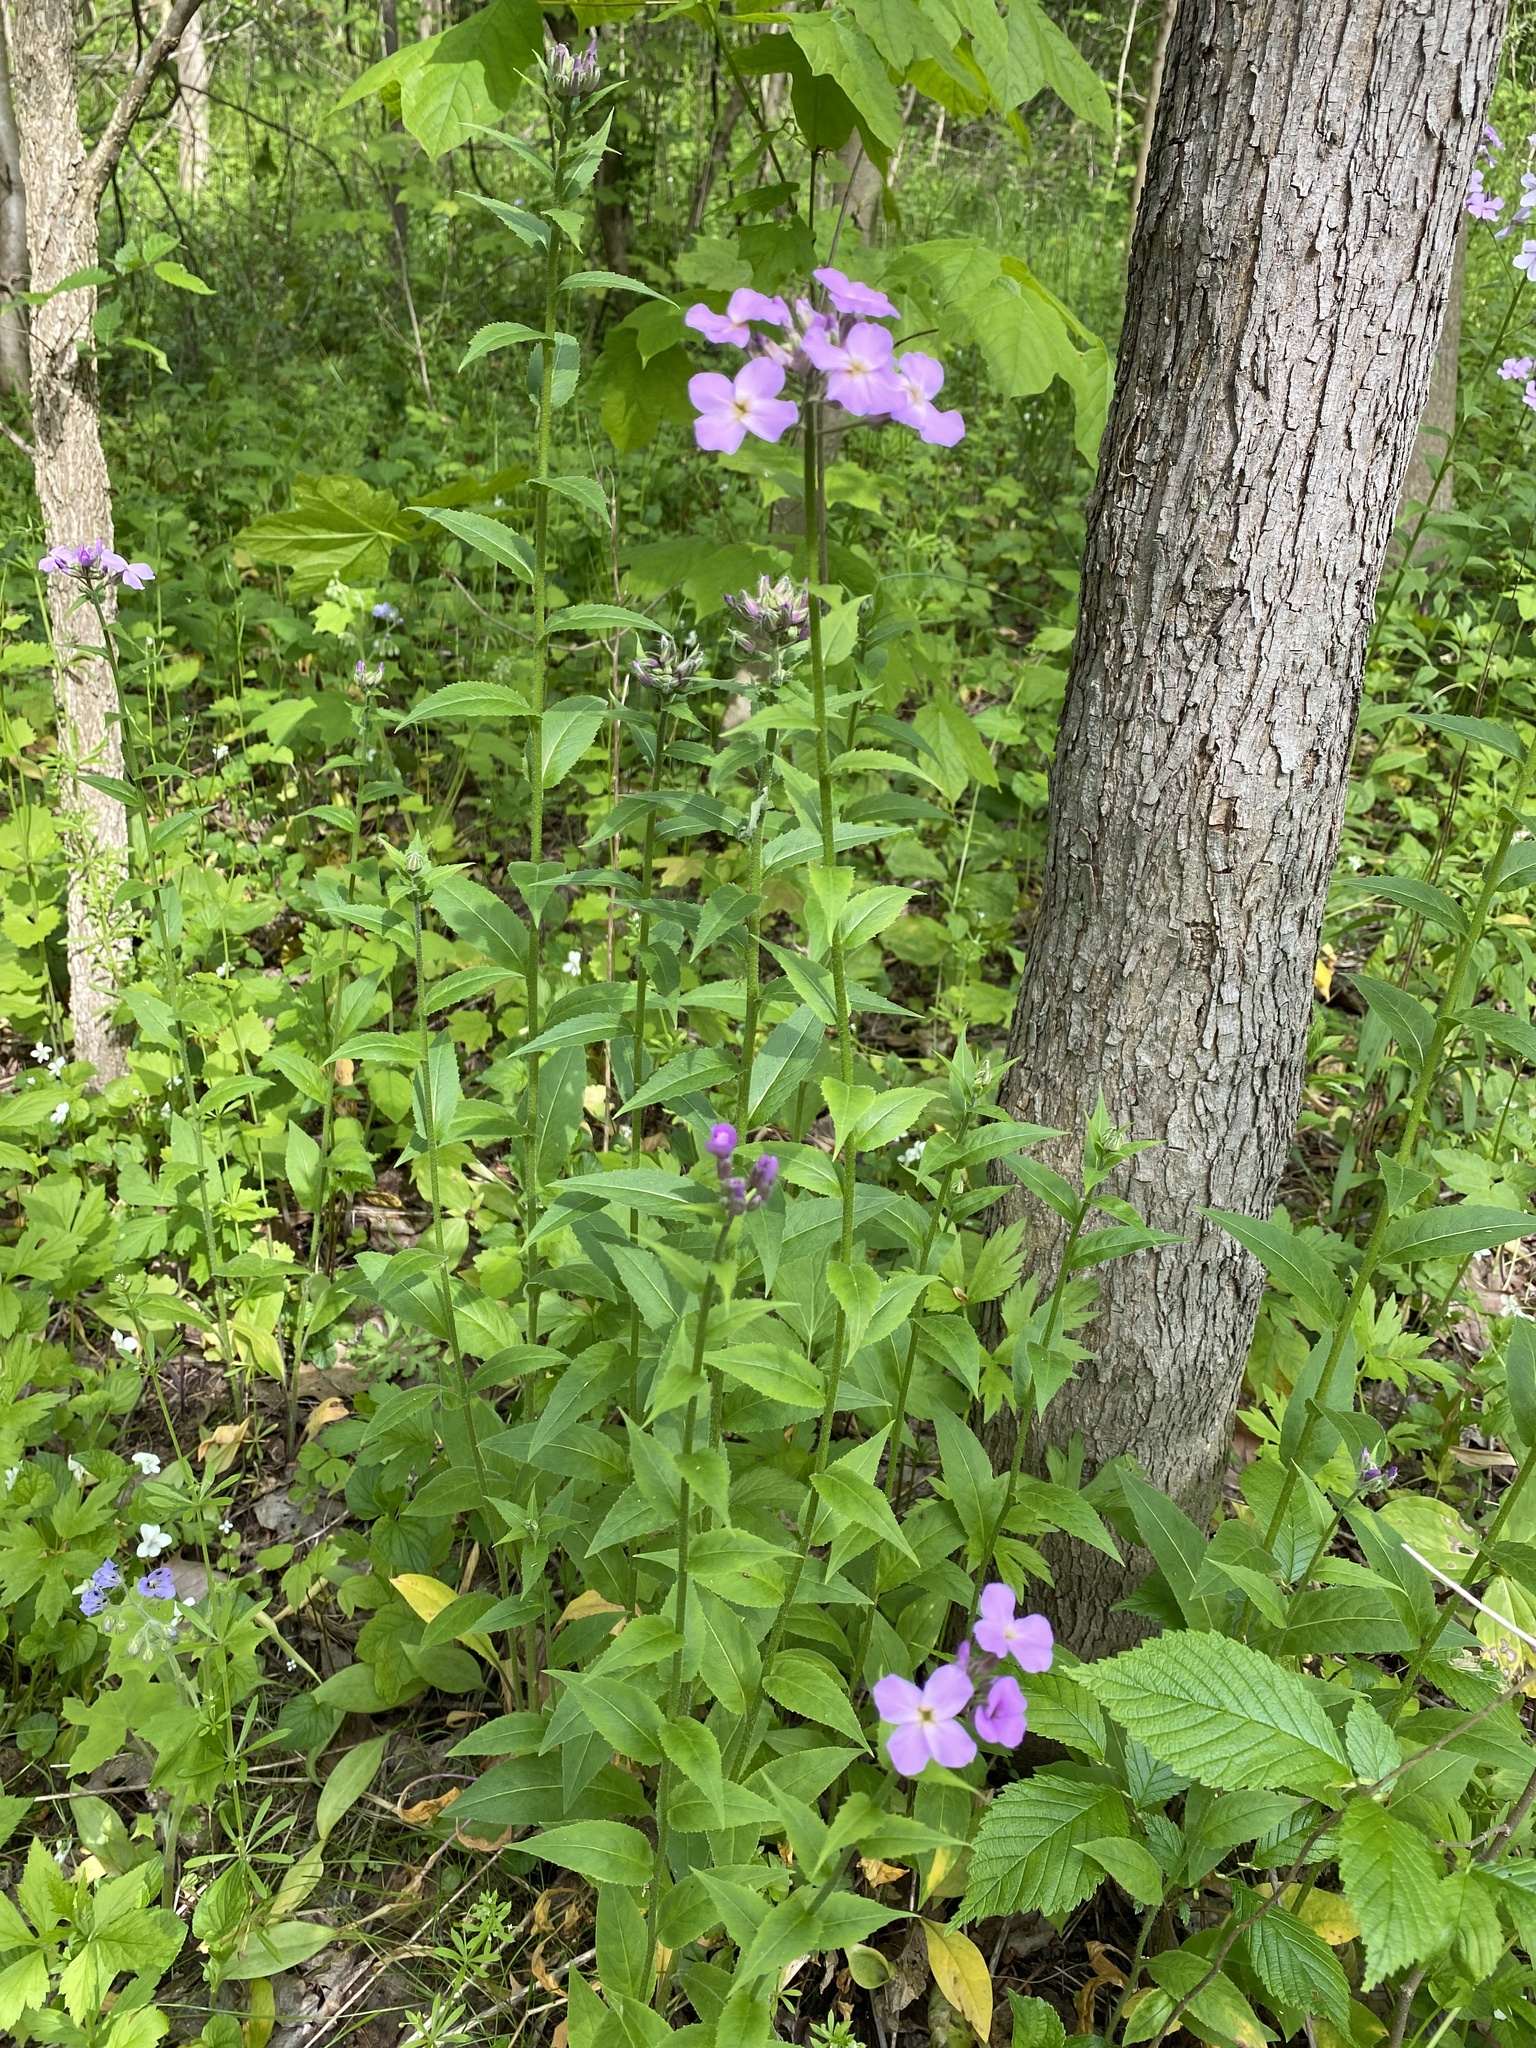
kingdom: Plantae
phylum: Tracheophyta
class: Magnoliopsida
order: Brassicales
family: Brassicaceae
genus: Hesperis
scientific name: Hesperis matronalis
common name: Dame's-violet
